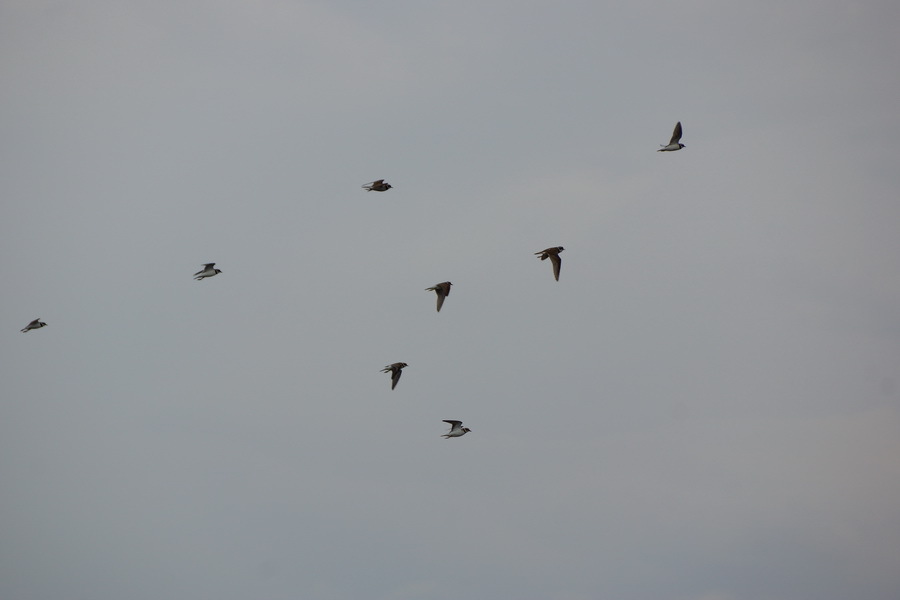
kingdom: Animalia
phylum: Chordata
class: Aves
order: Charadriiformes
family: Charadriidae
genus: Charadrius
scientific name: Charadrius dubius
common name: Little ringed plover
